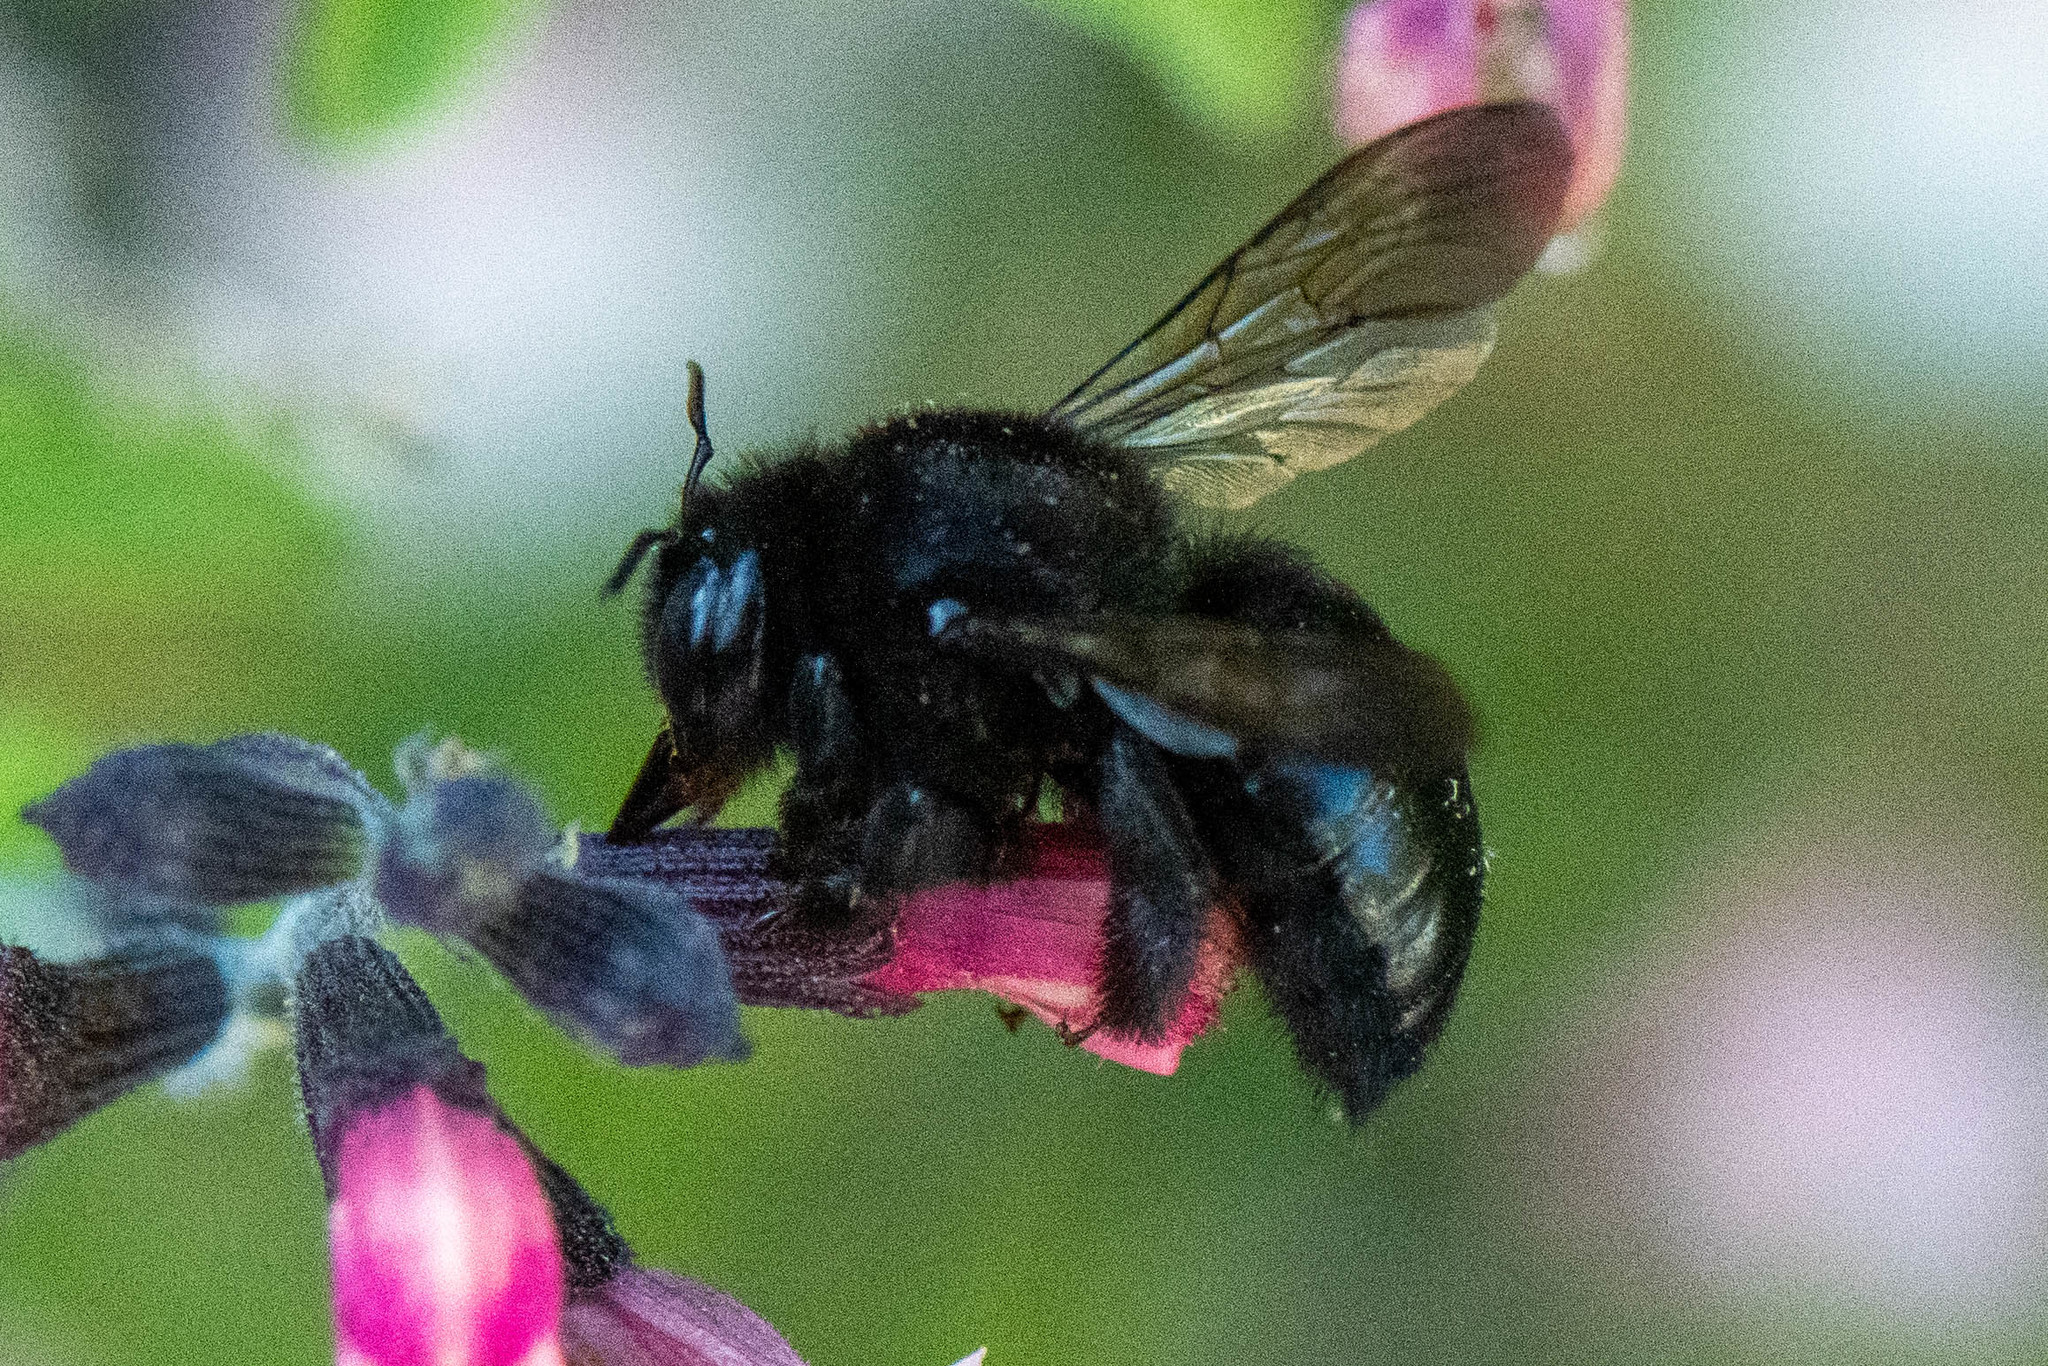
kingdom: Animalia
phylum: Arthropoda
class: Insecta
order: Hymenoptera
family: Apidae
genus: Xylocopa
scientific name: Xylocopa tabaniformis
